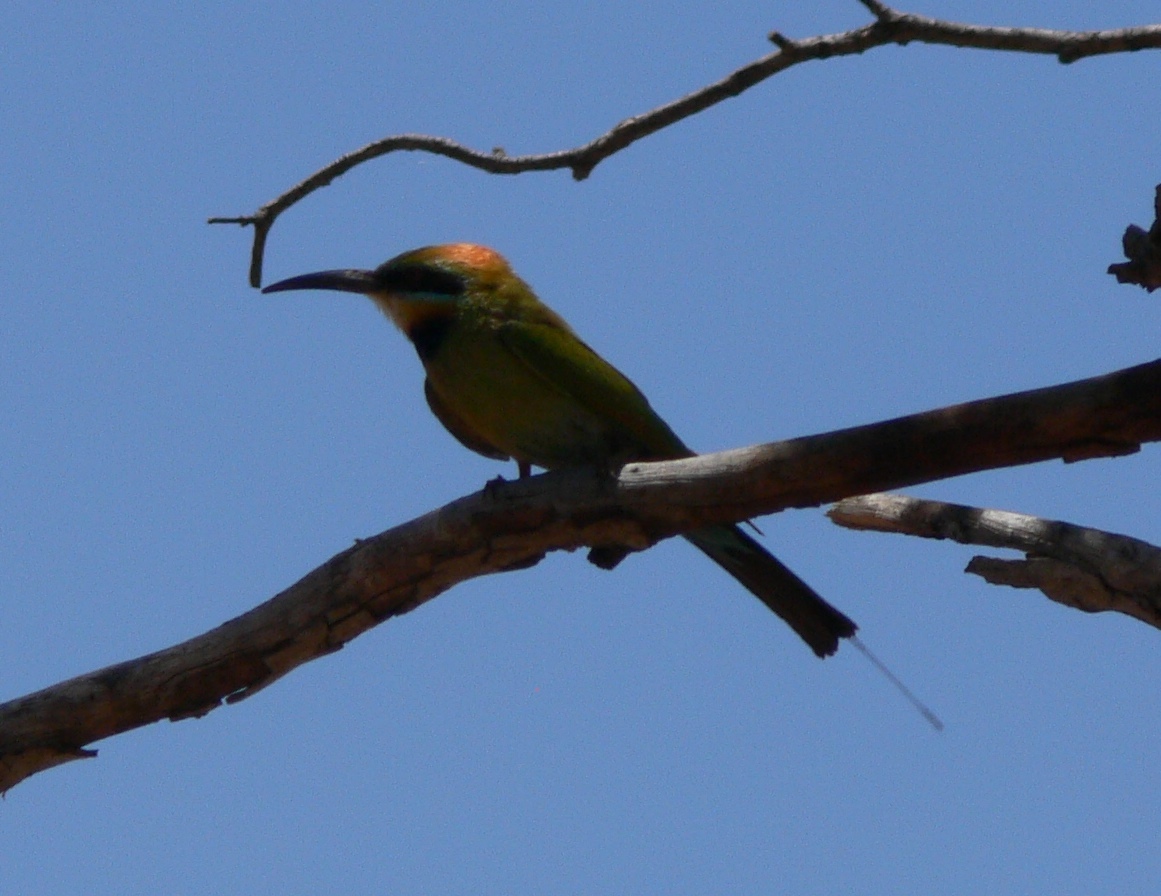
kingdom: Animalia
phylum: Chordata
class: Aves
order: Coraciiformes
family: Meropidae
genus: Merops
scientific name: Merops ornatus
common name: Rainbow bee-eater
